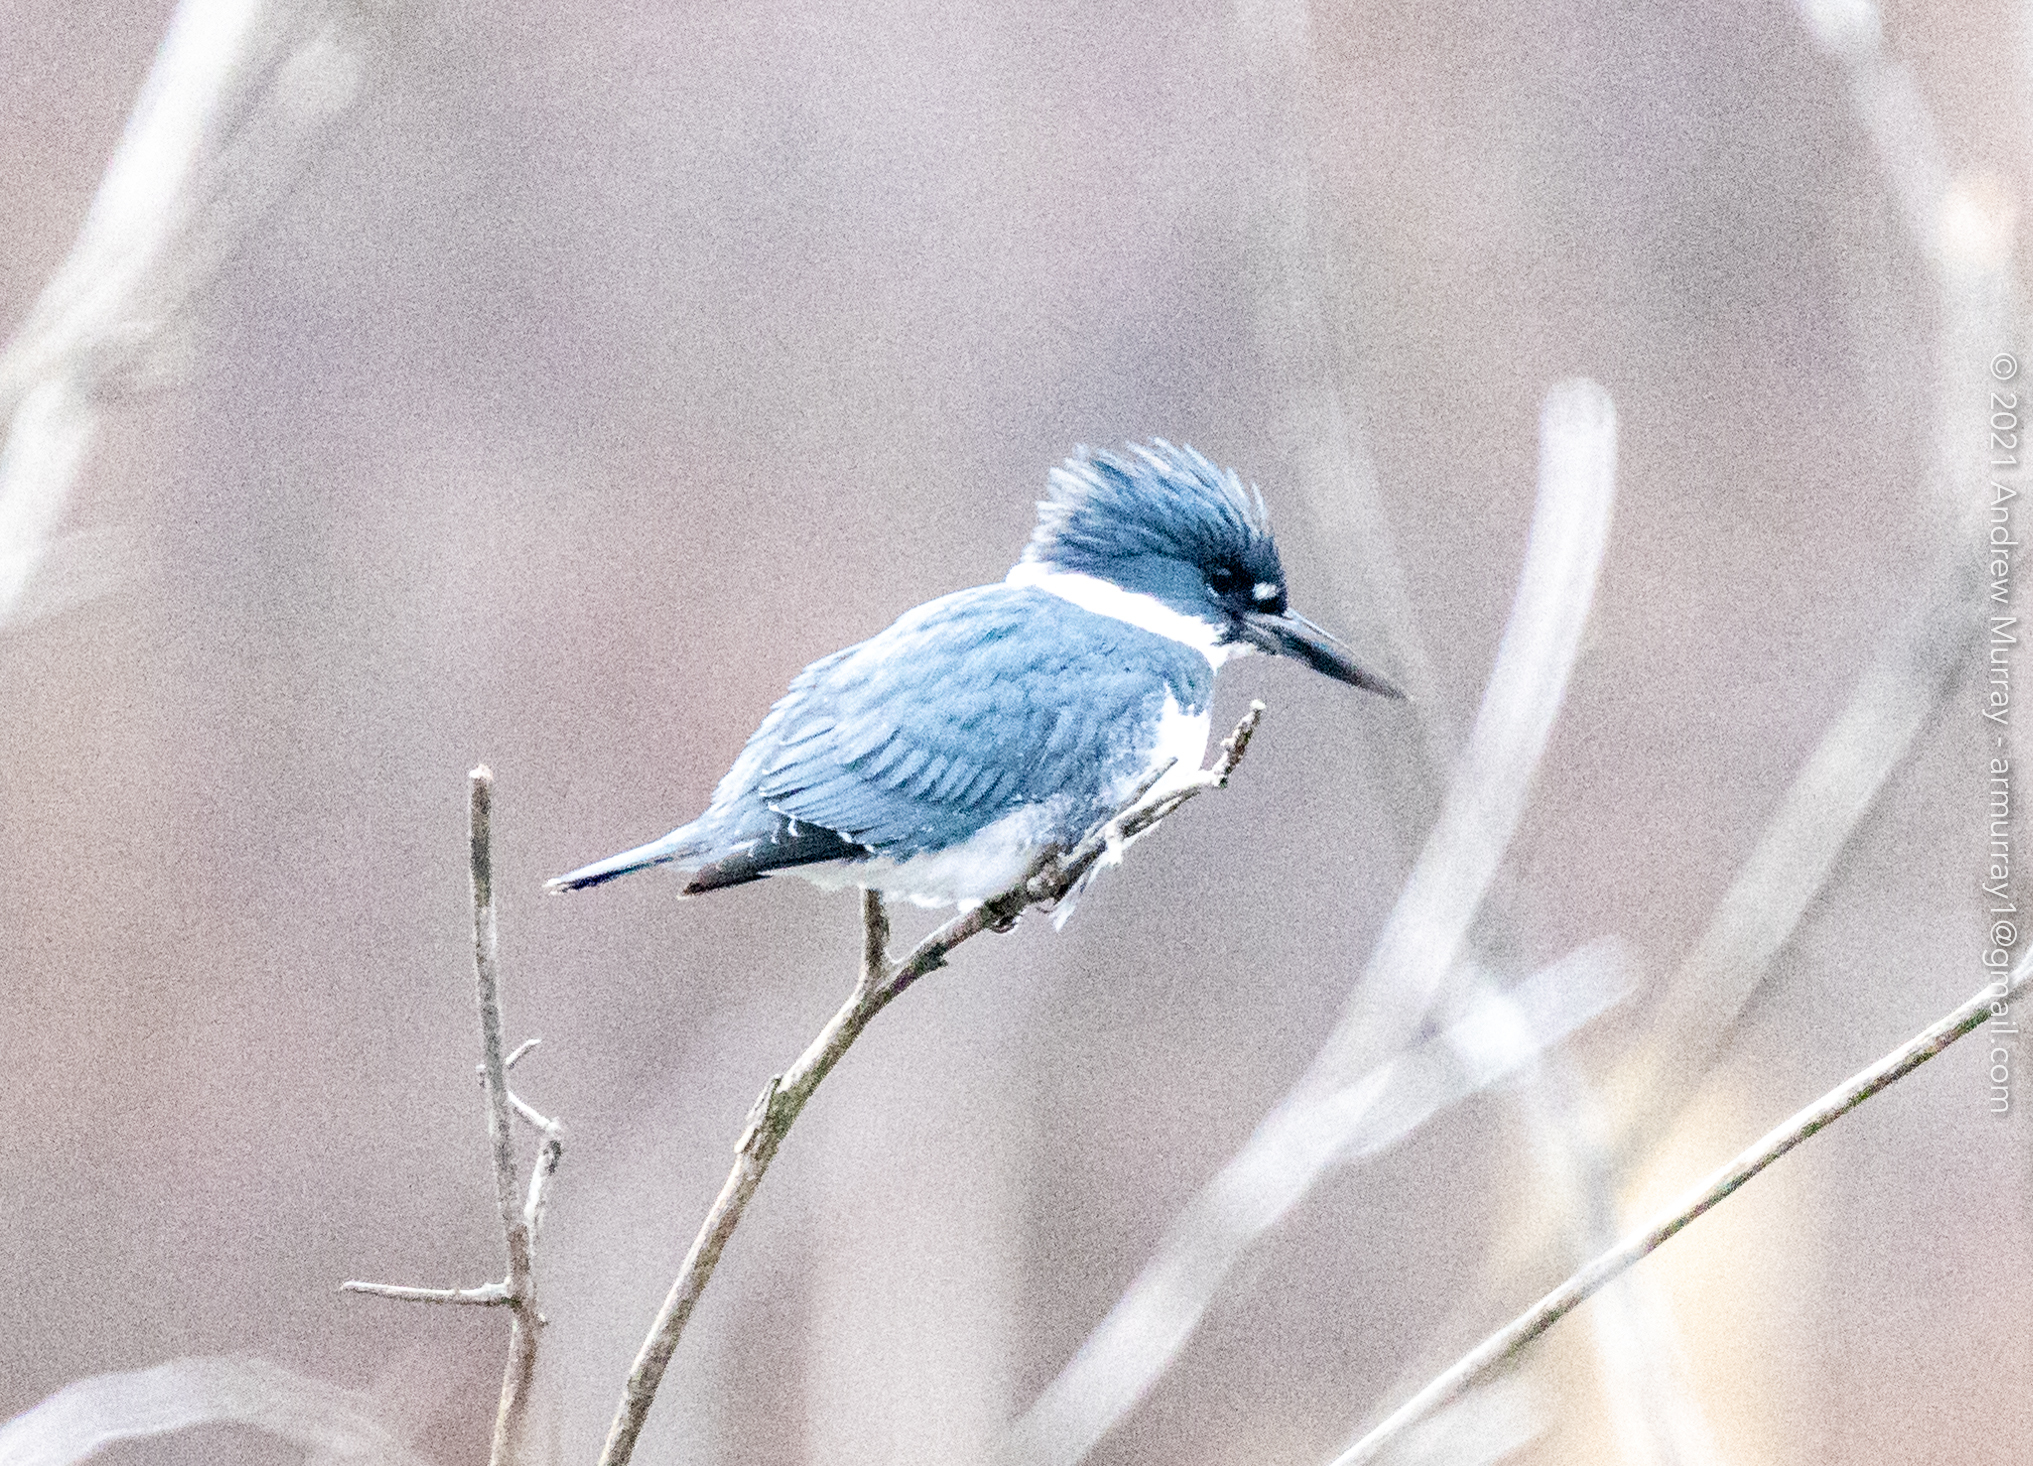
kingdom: Animalia
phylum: Chordata
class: Aves
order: Coraciiformes
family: Alcedinidae
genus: Megaceryle
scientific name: Megaceryle alcyon
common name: Belted kingfisher
